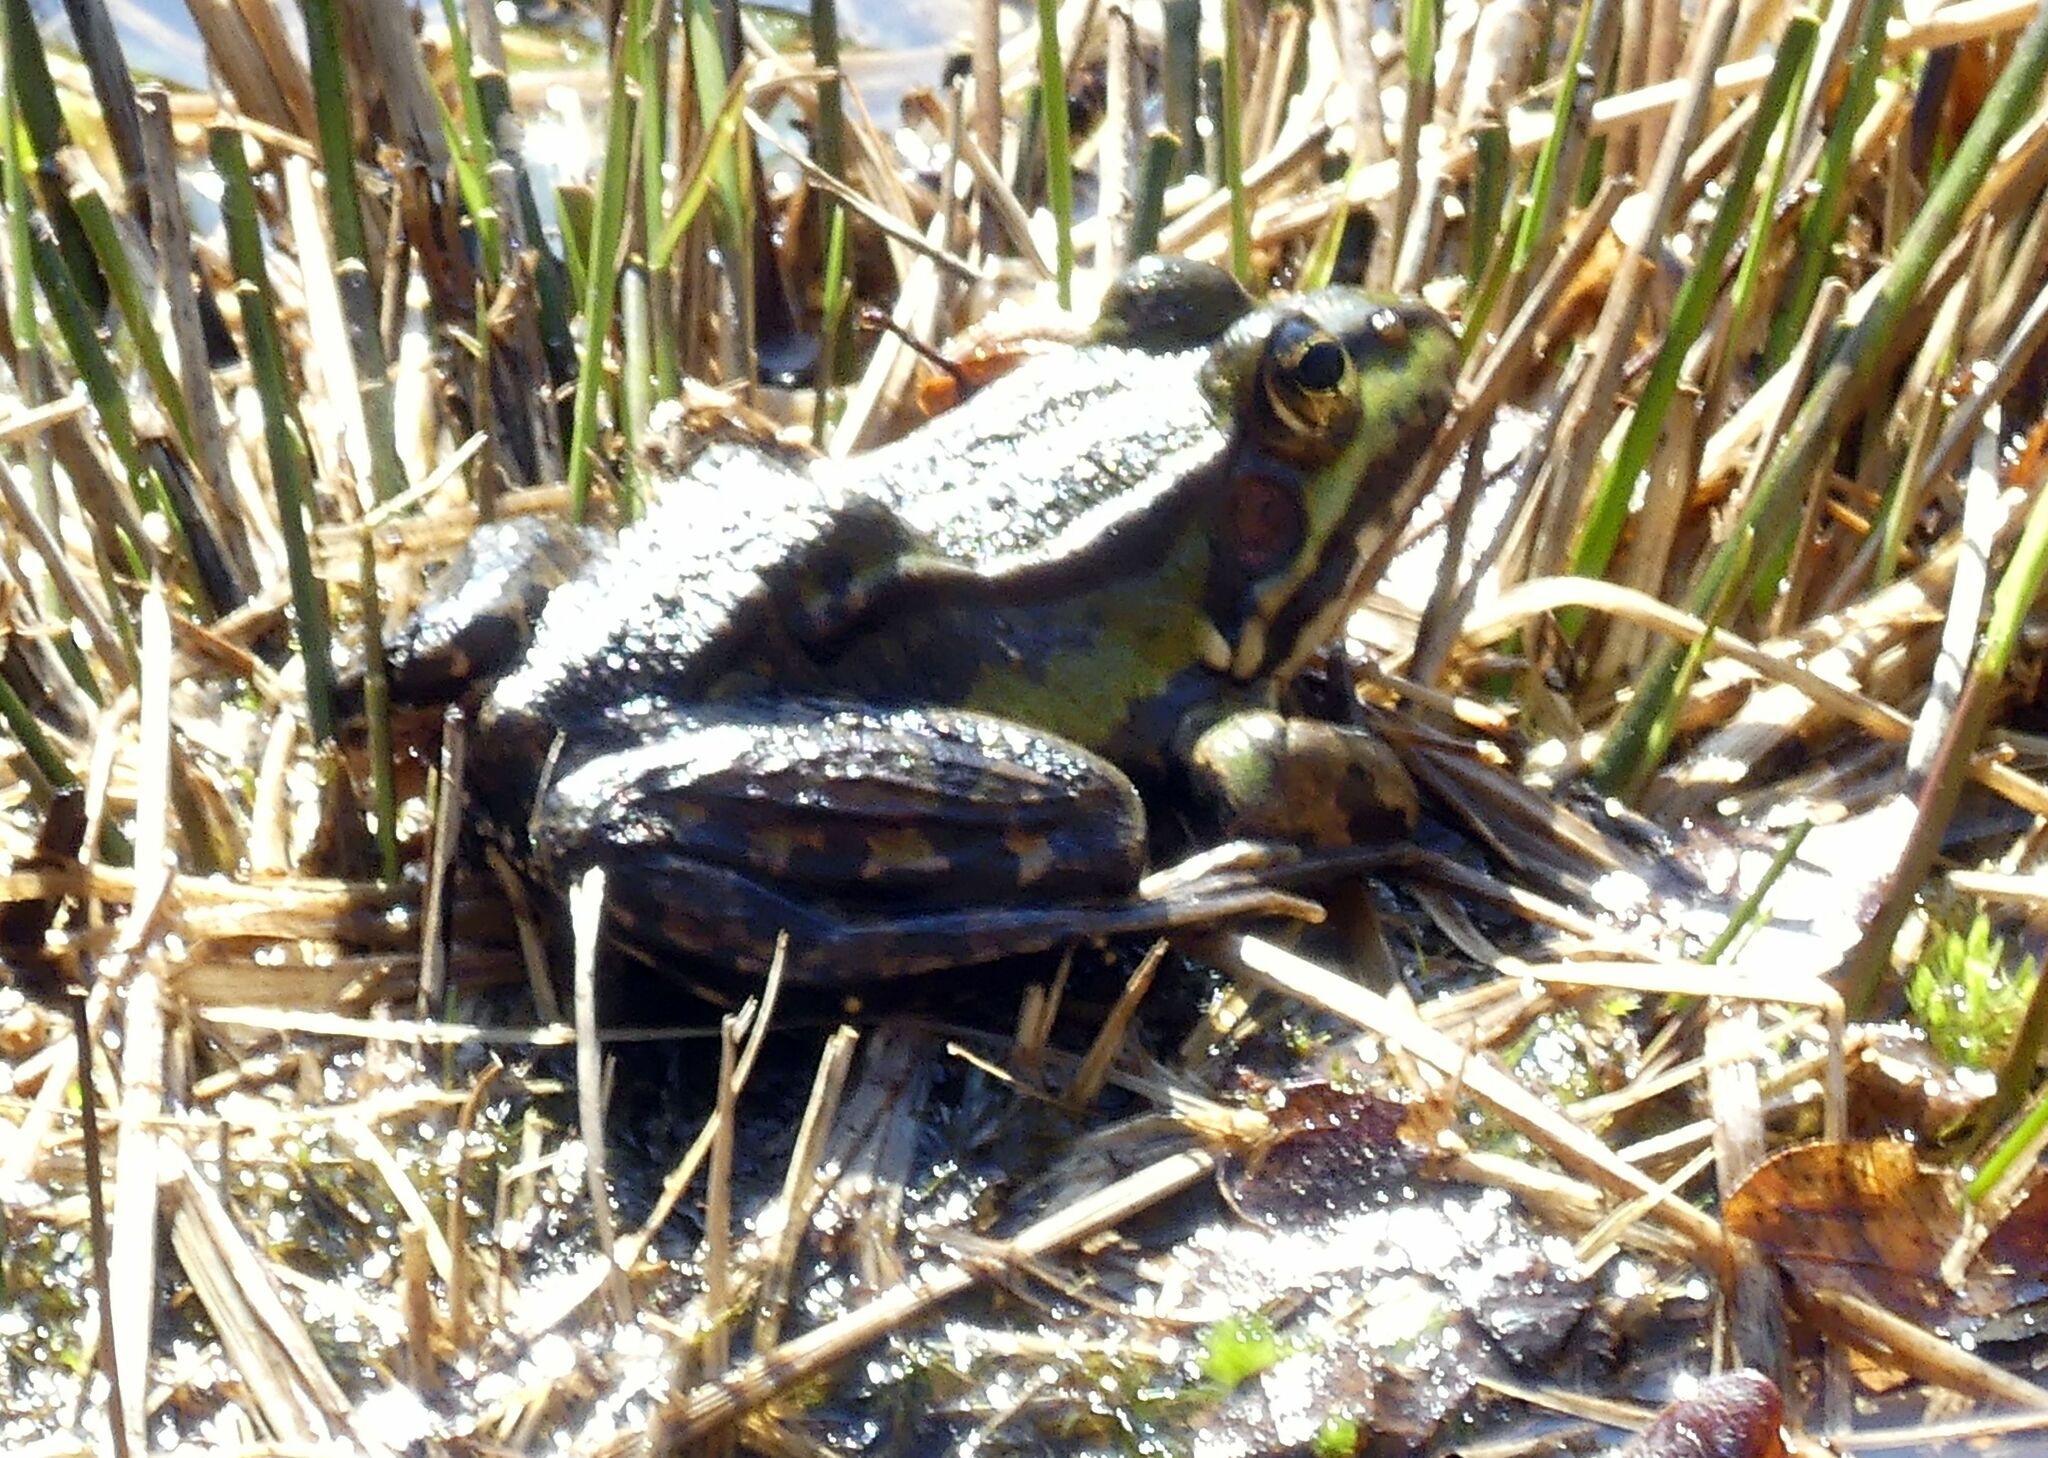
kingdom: Animalia
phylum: Chordata
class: Amphibia
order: Anura
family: Ranidae
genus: Pelophylax
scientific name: Pelophylax lessonae
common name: Pool frog
